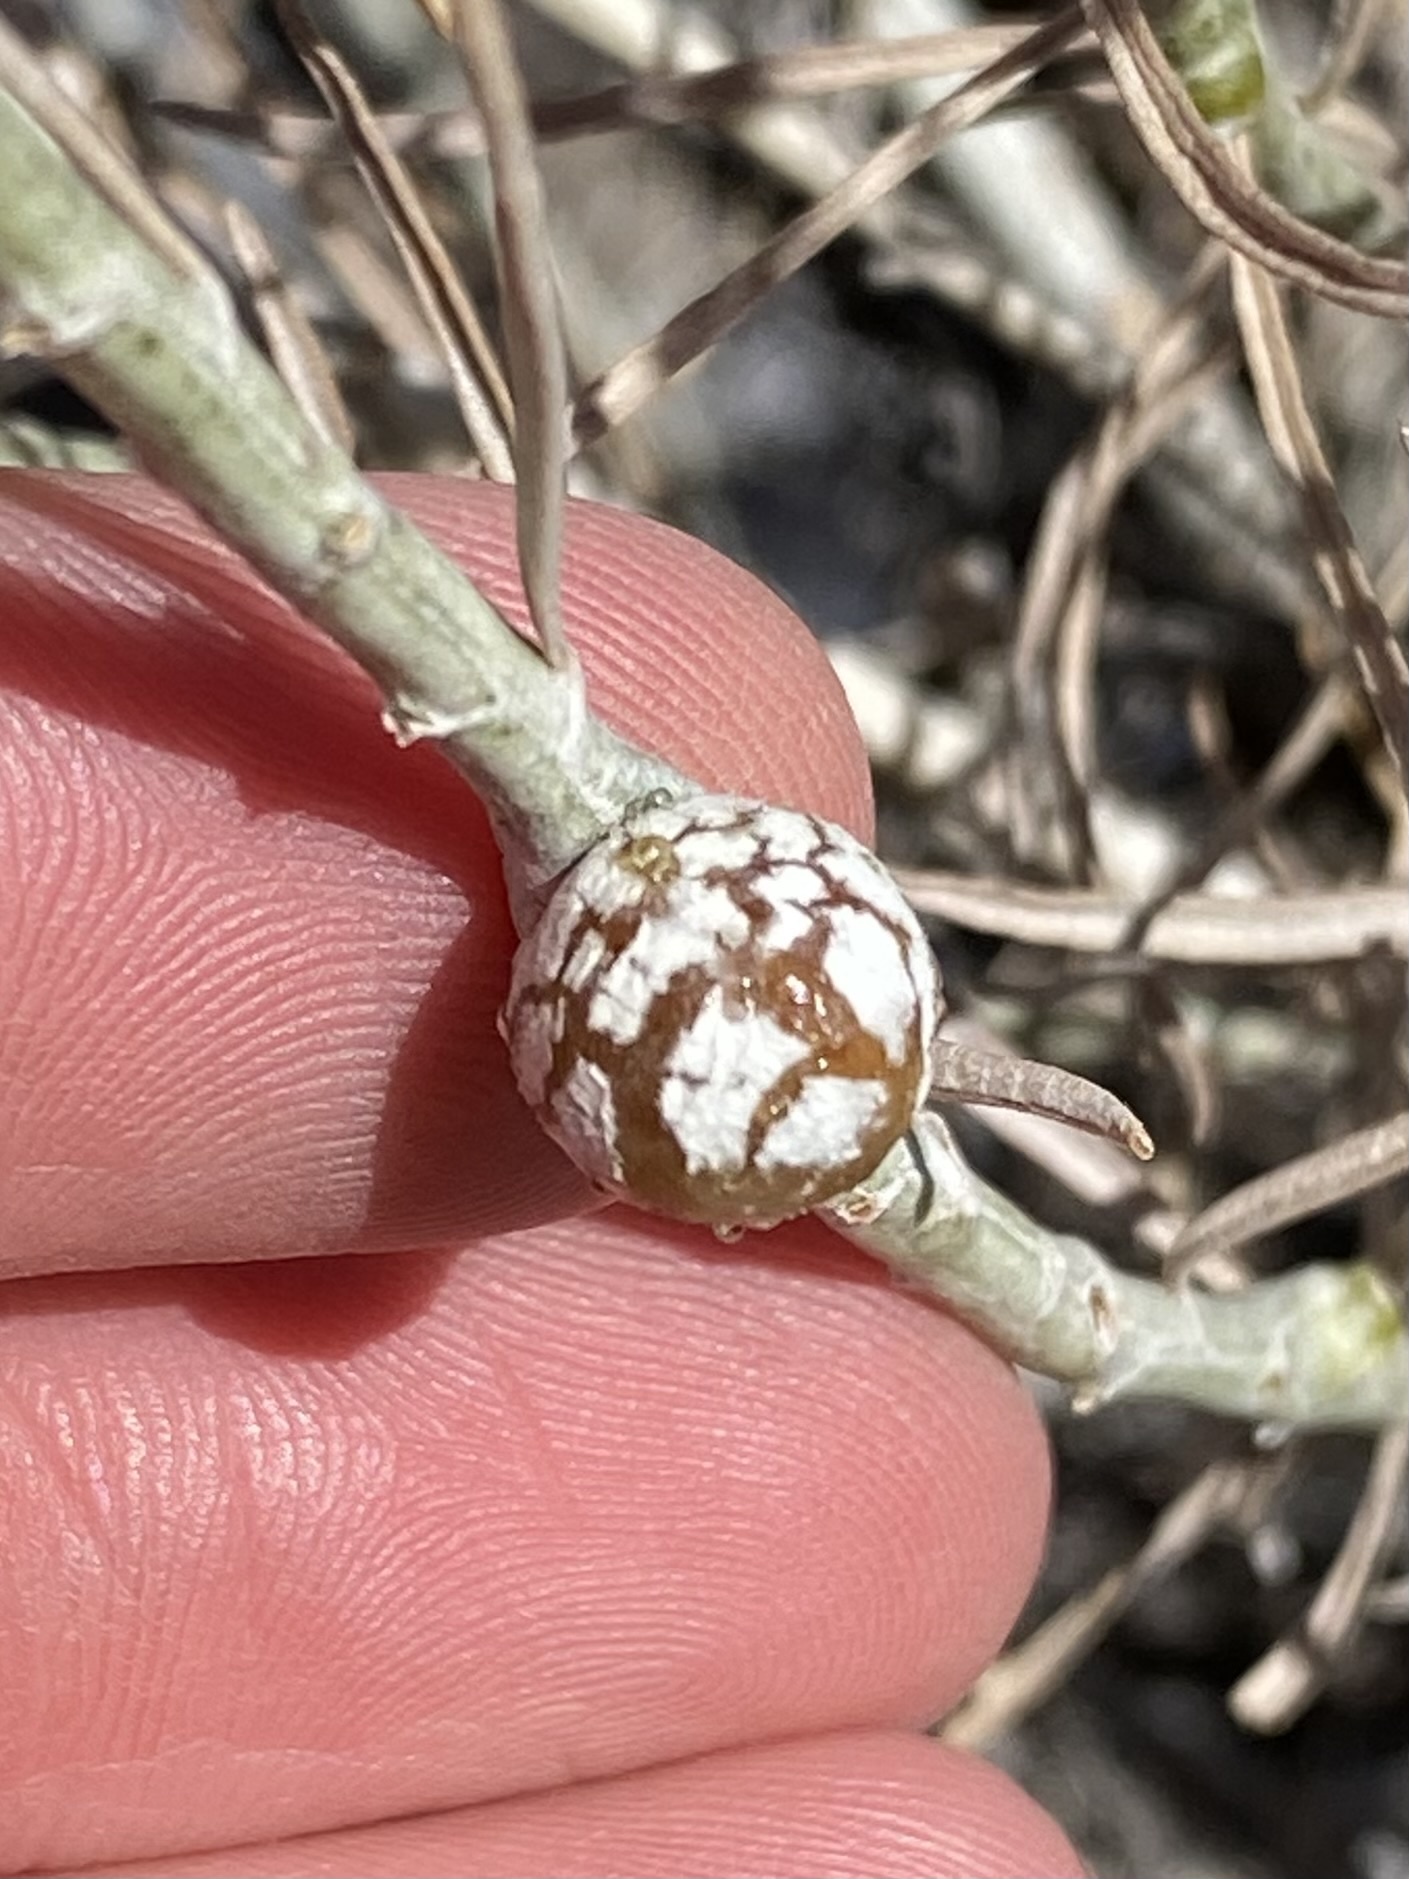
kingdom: Animalia
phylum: Arthropoda
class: Insecta
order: Diptera
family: Tephritidae
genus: Aciurina
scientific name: Aciurina trixa
